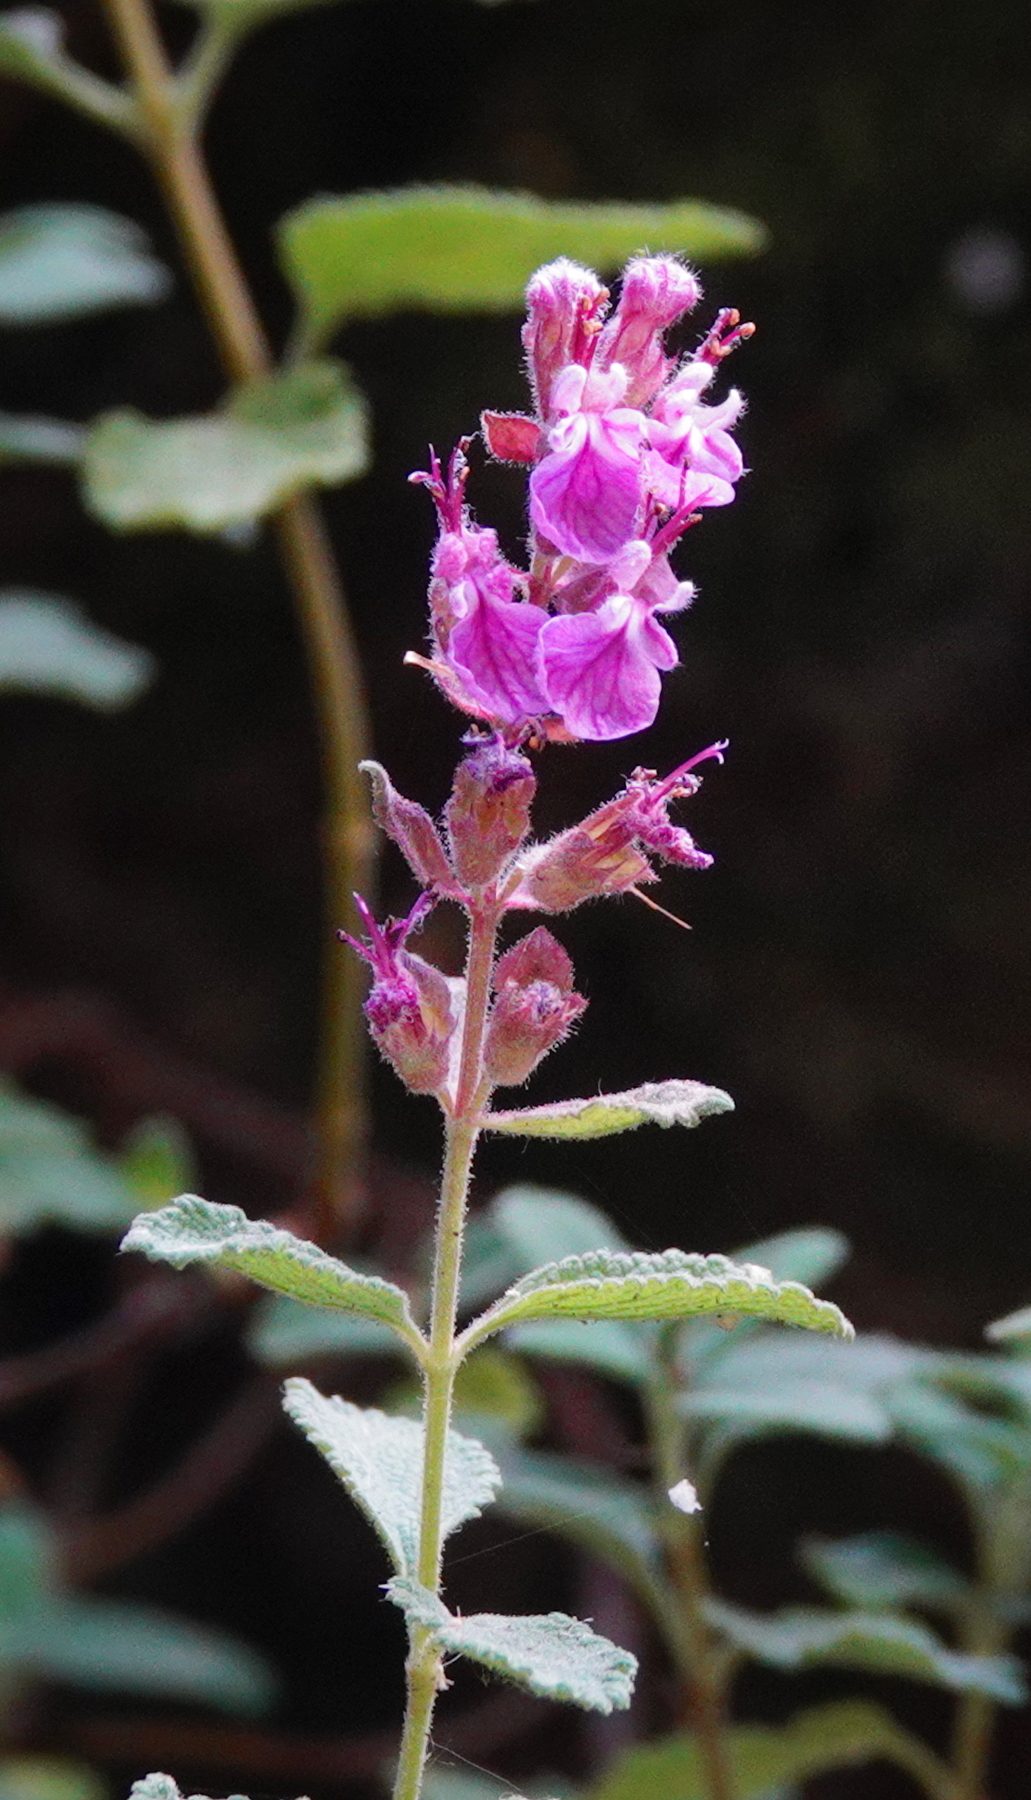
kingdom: Plantae
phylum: Tracheophyta
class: Magnoliopsida
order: Lamiales
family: Lamiaceae
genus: Teucrium
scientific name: Teucrium salviastrum
